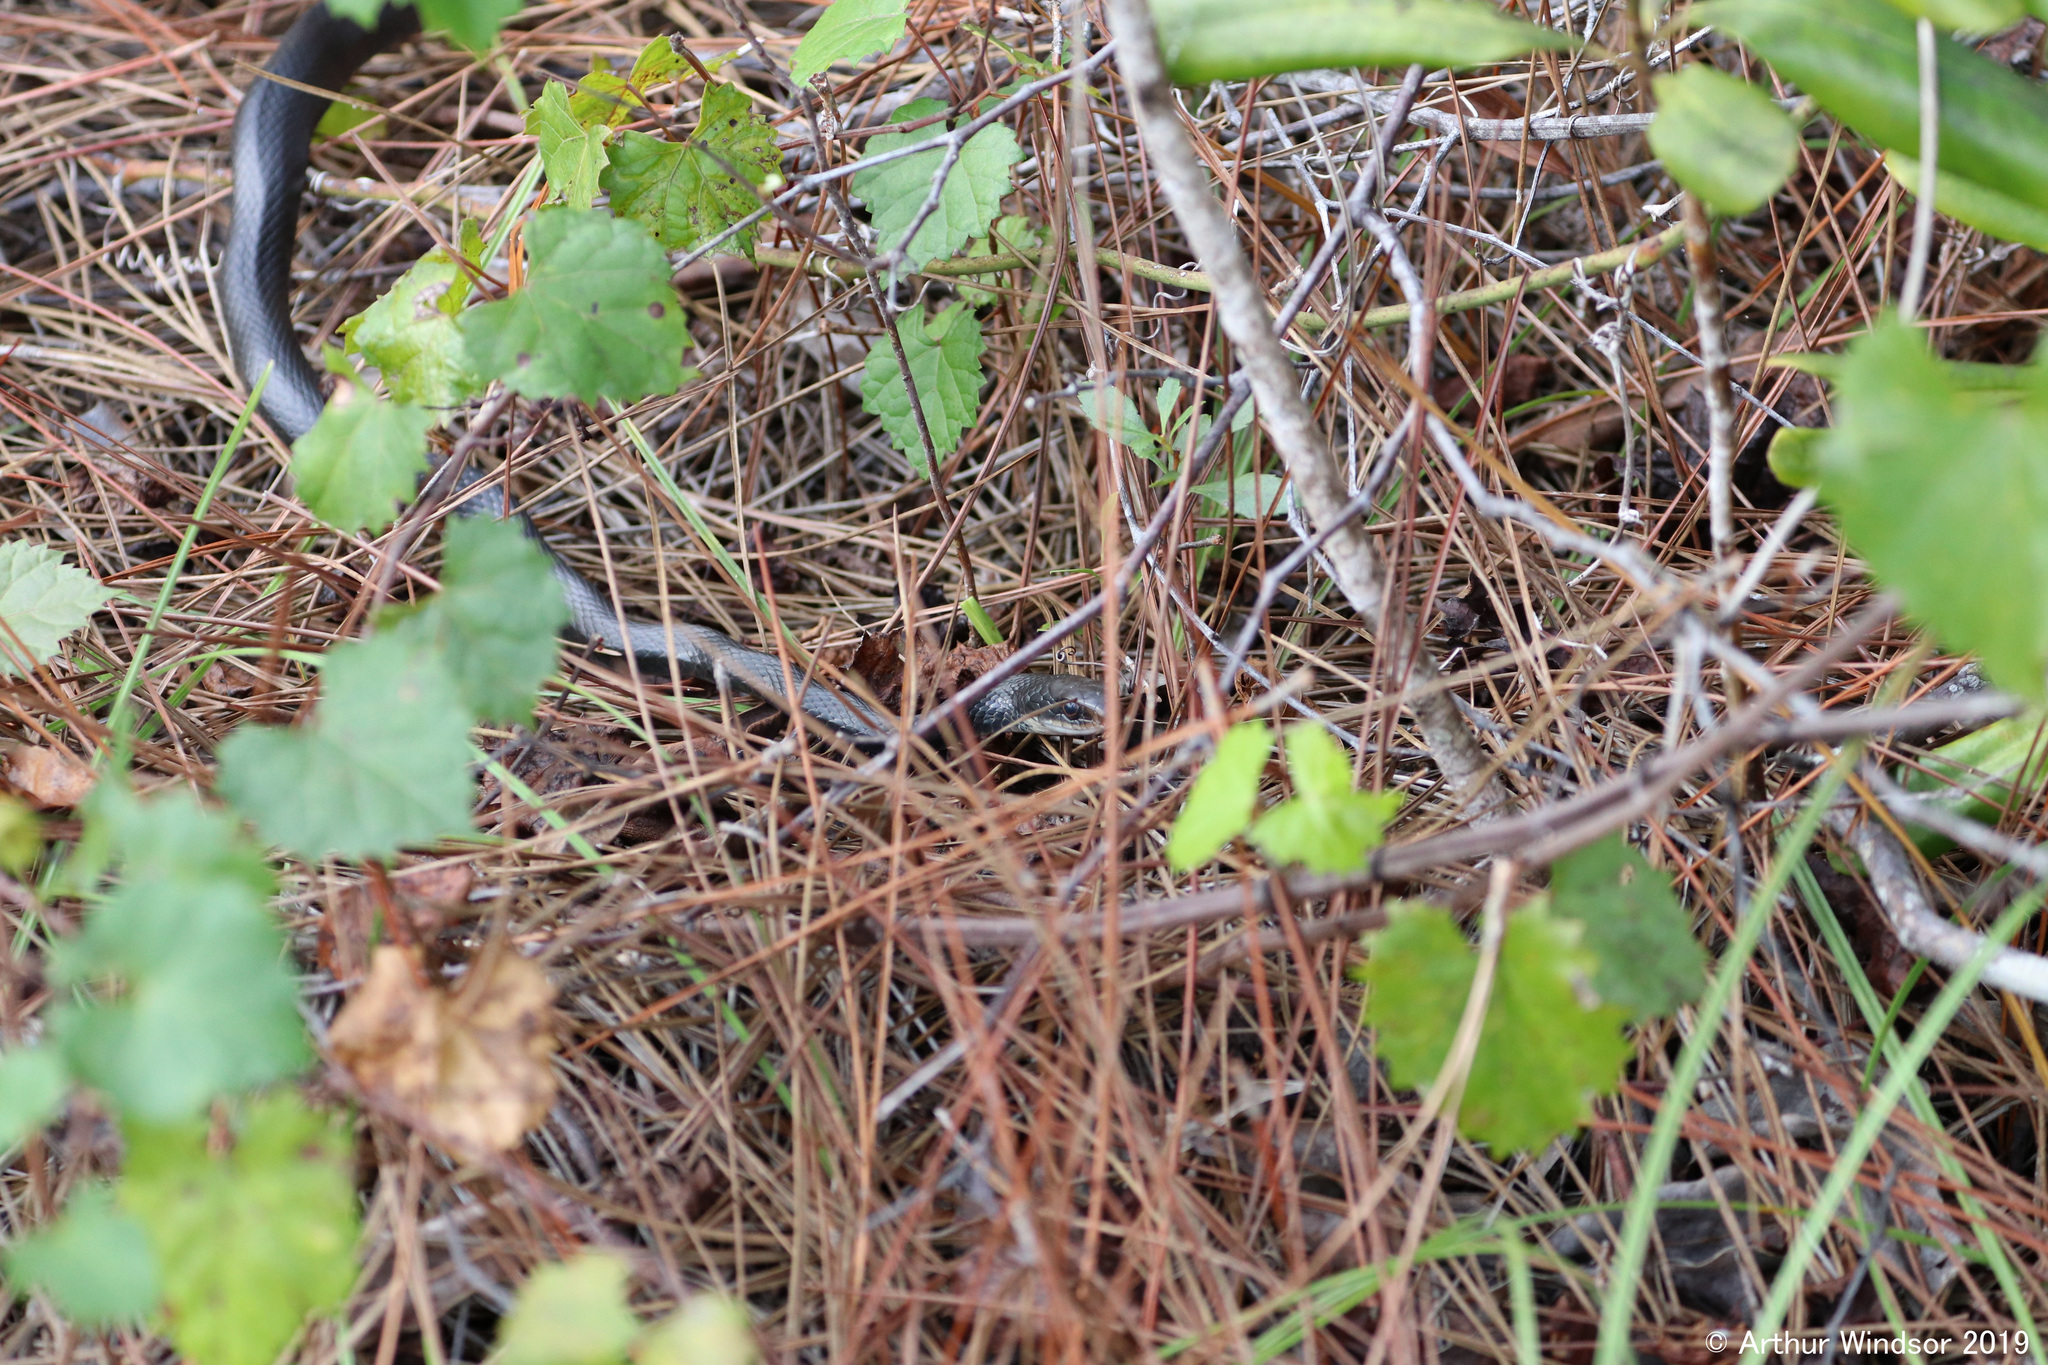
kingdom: Animalia
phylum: Chordata
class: Squamata
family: Colubridae
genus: Coluber
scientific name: Coluber constrictor
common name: Eastern racer
